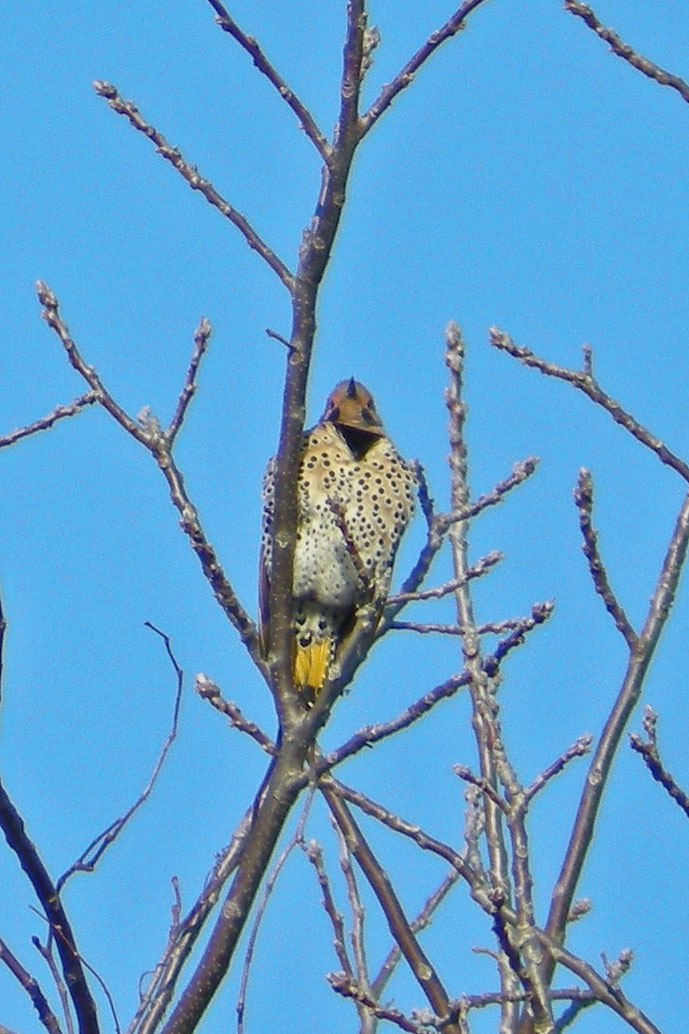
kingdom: Animalia
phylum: Chordata
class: Aves
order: Piciformes
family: Picidae
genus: Colaptes
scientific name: Colaptes auratus
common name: Northern flicker
